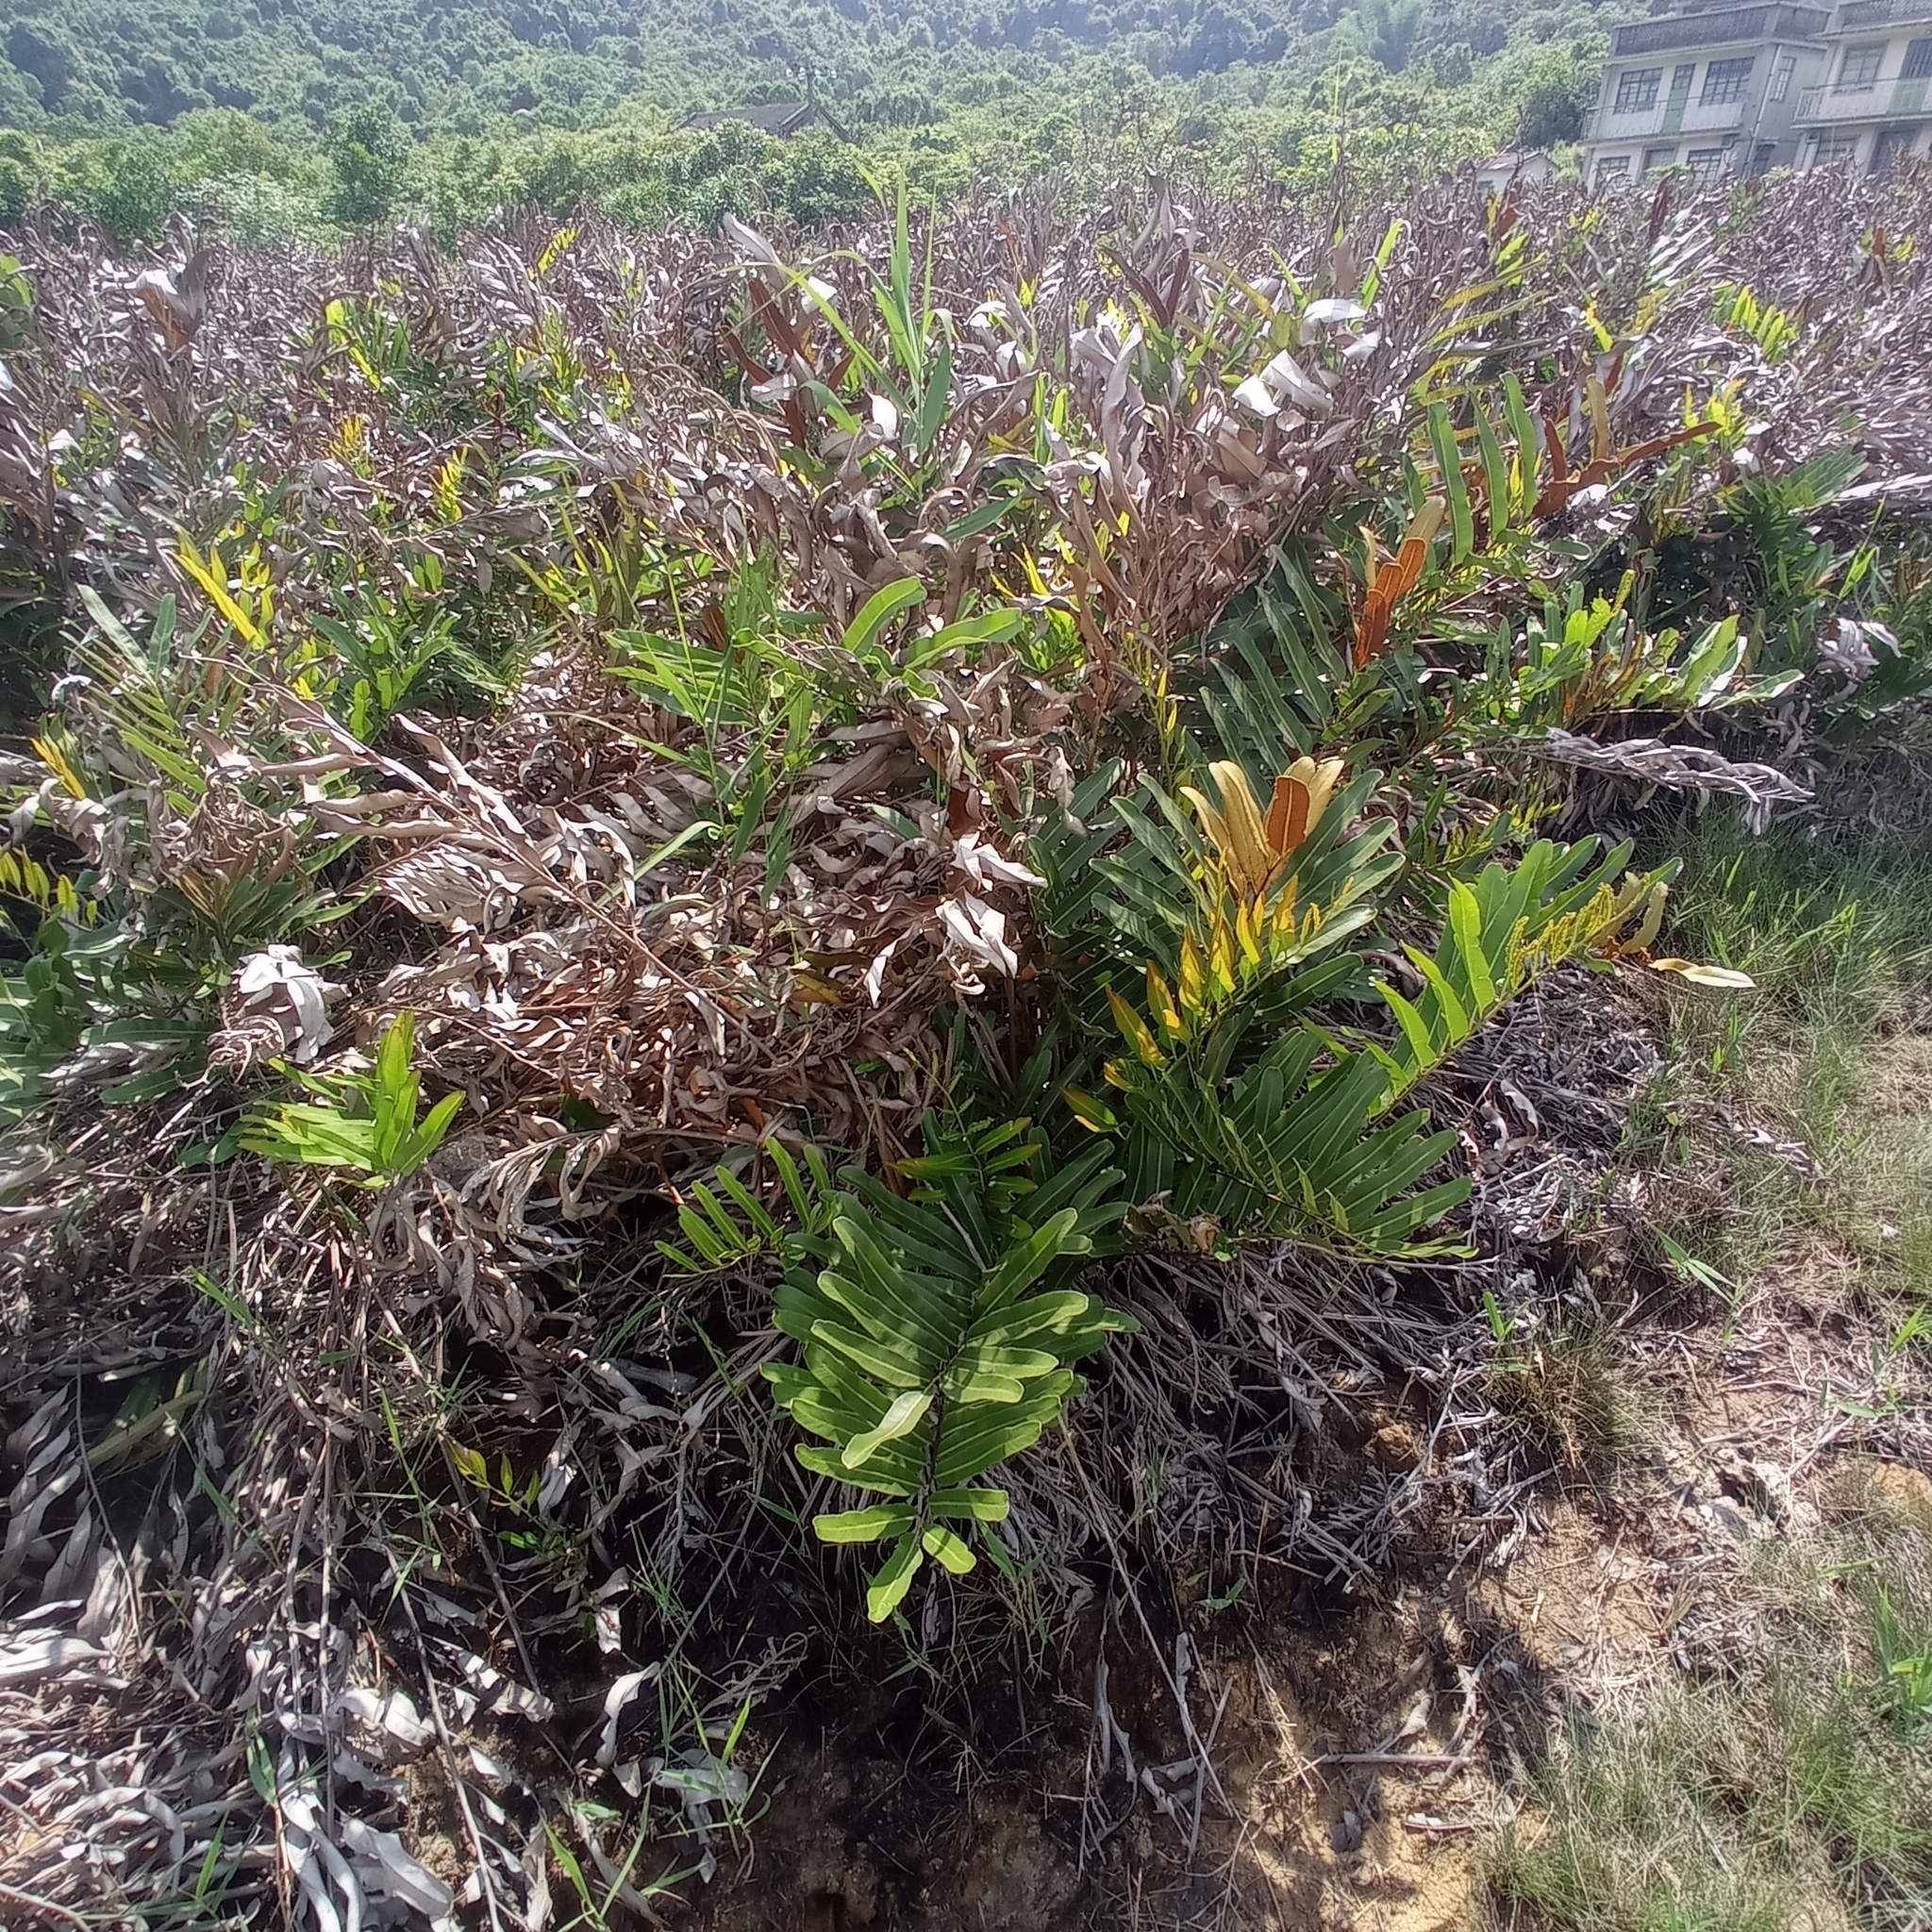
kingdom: Plantae
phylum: Tracheophyta
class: Polypodiopsida
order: Polypodiales
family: Pteridaceae
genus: Acrostichum
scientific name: Acrostichum aureum
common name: Leather fern
